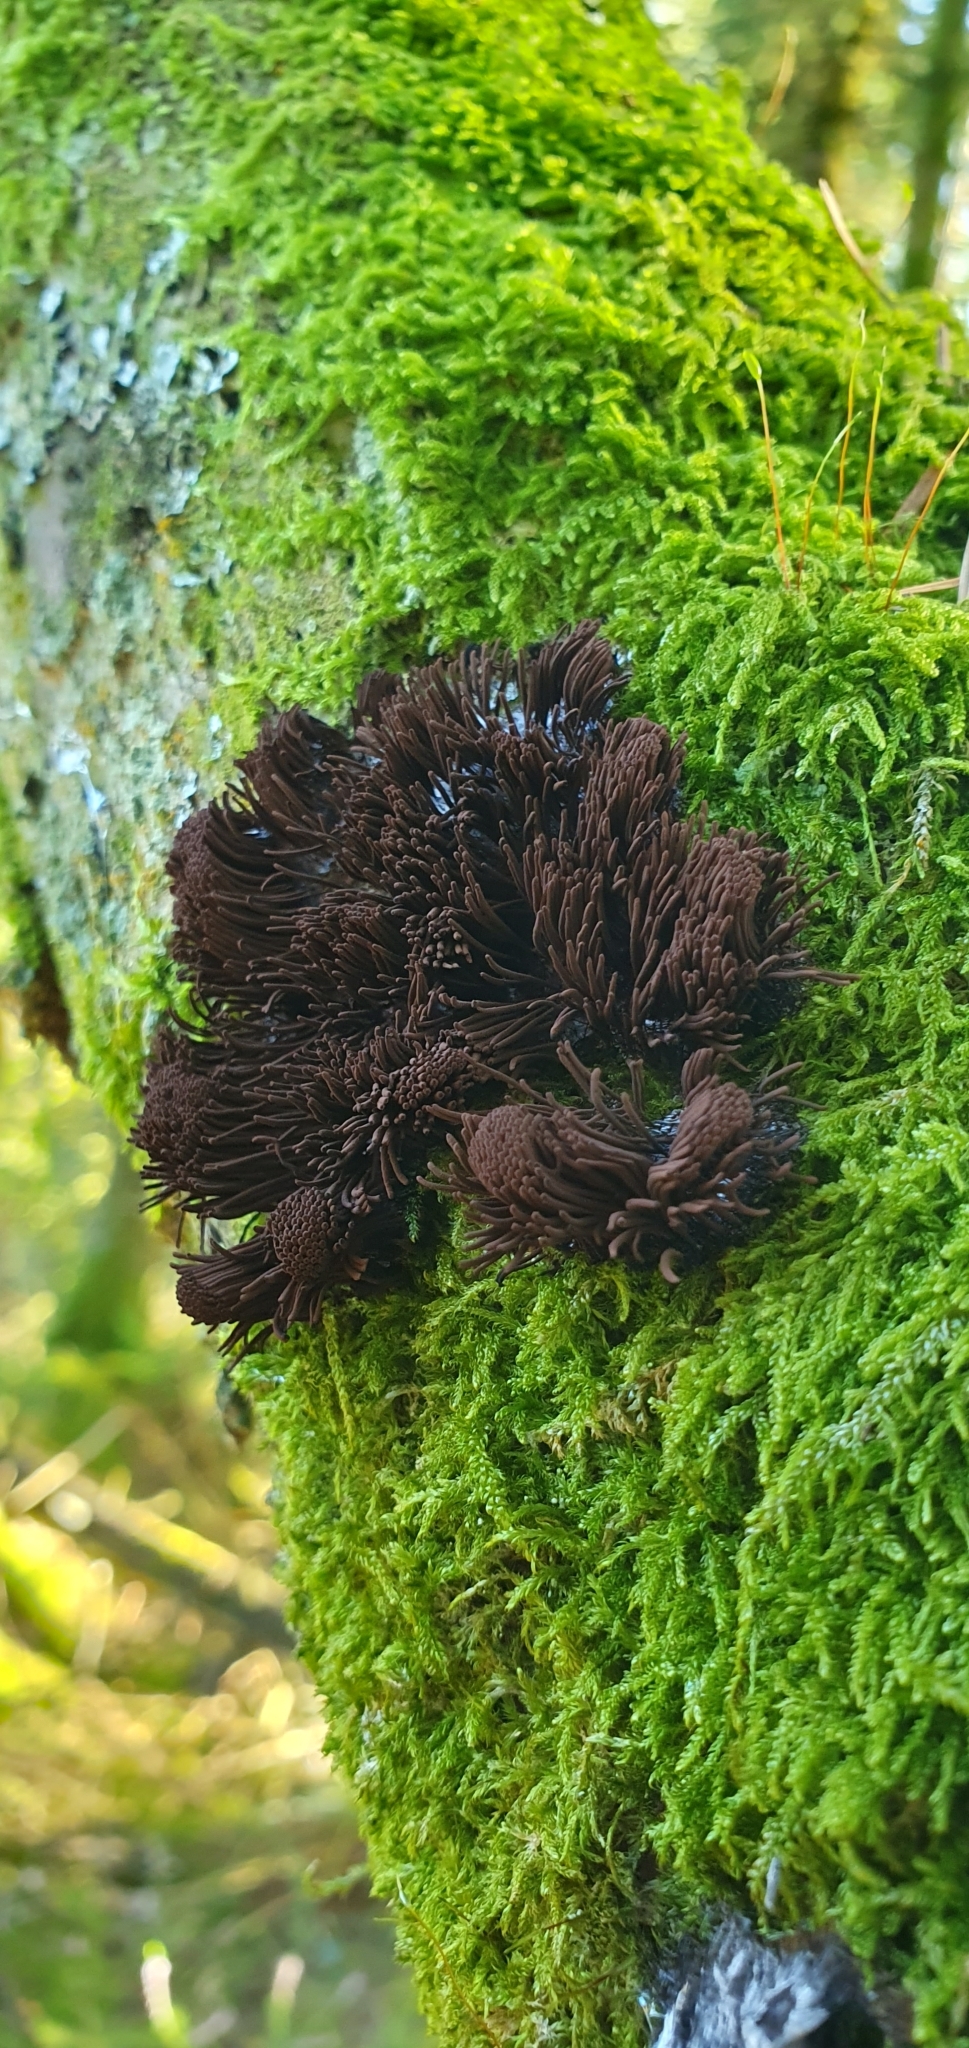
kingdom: Protozoa
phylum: Mycetozoa
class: Myxomycetes
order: Stemonitidales
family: Stemonitidaceae
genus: Stemonitis
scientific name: Stemonitis splendens
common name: Chocolate tube slime
